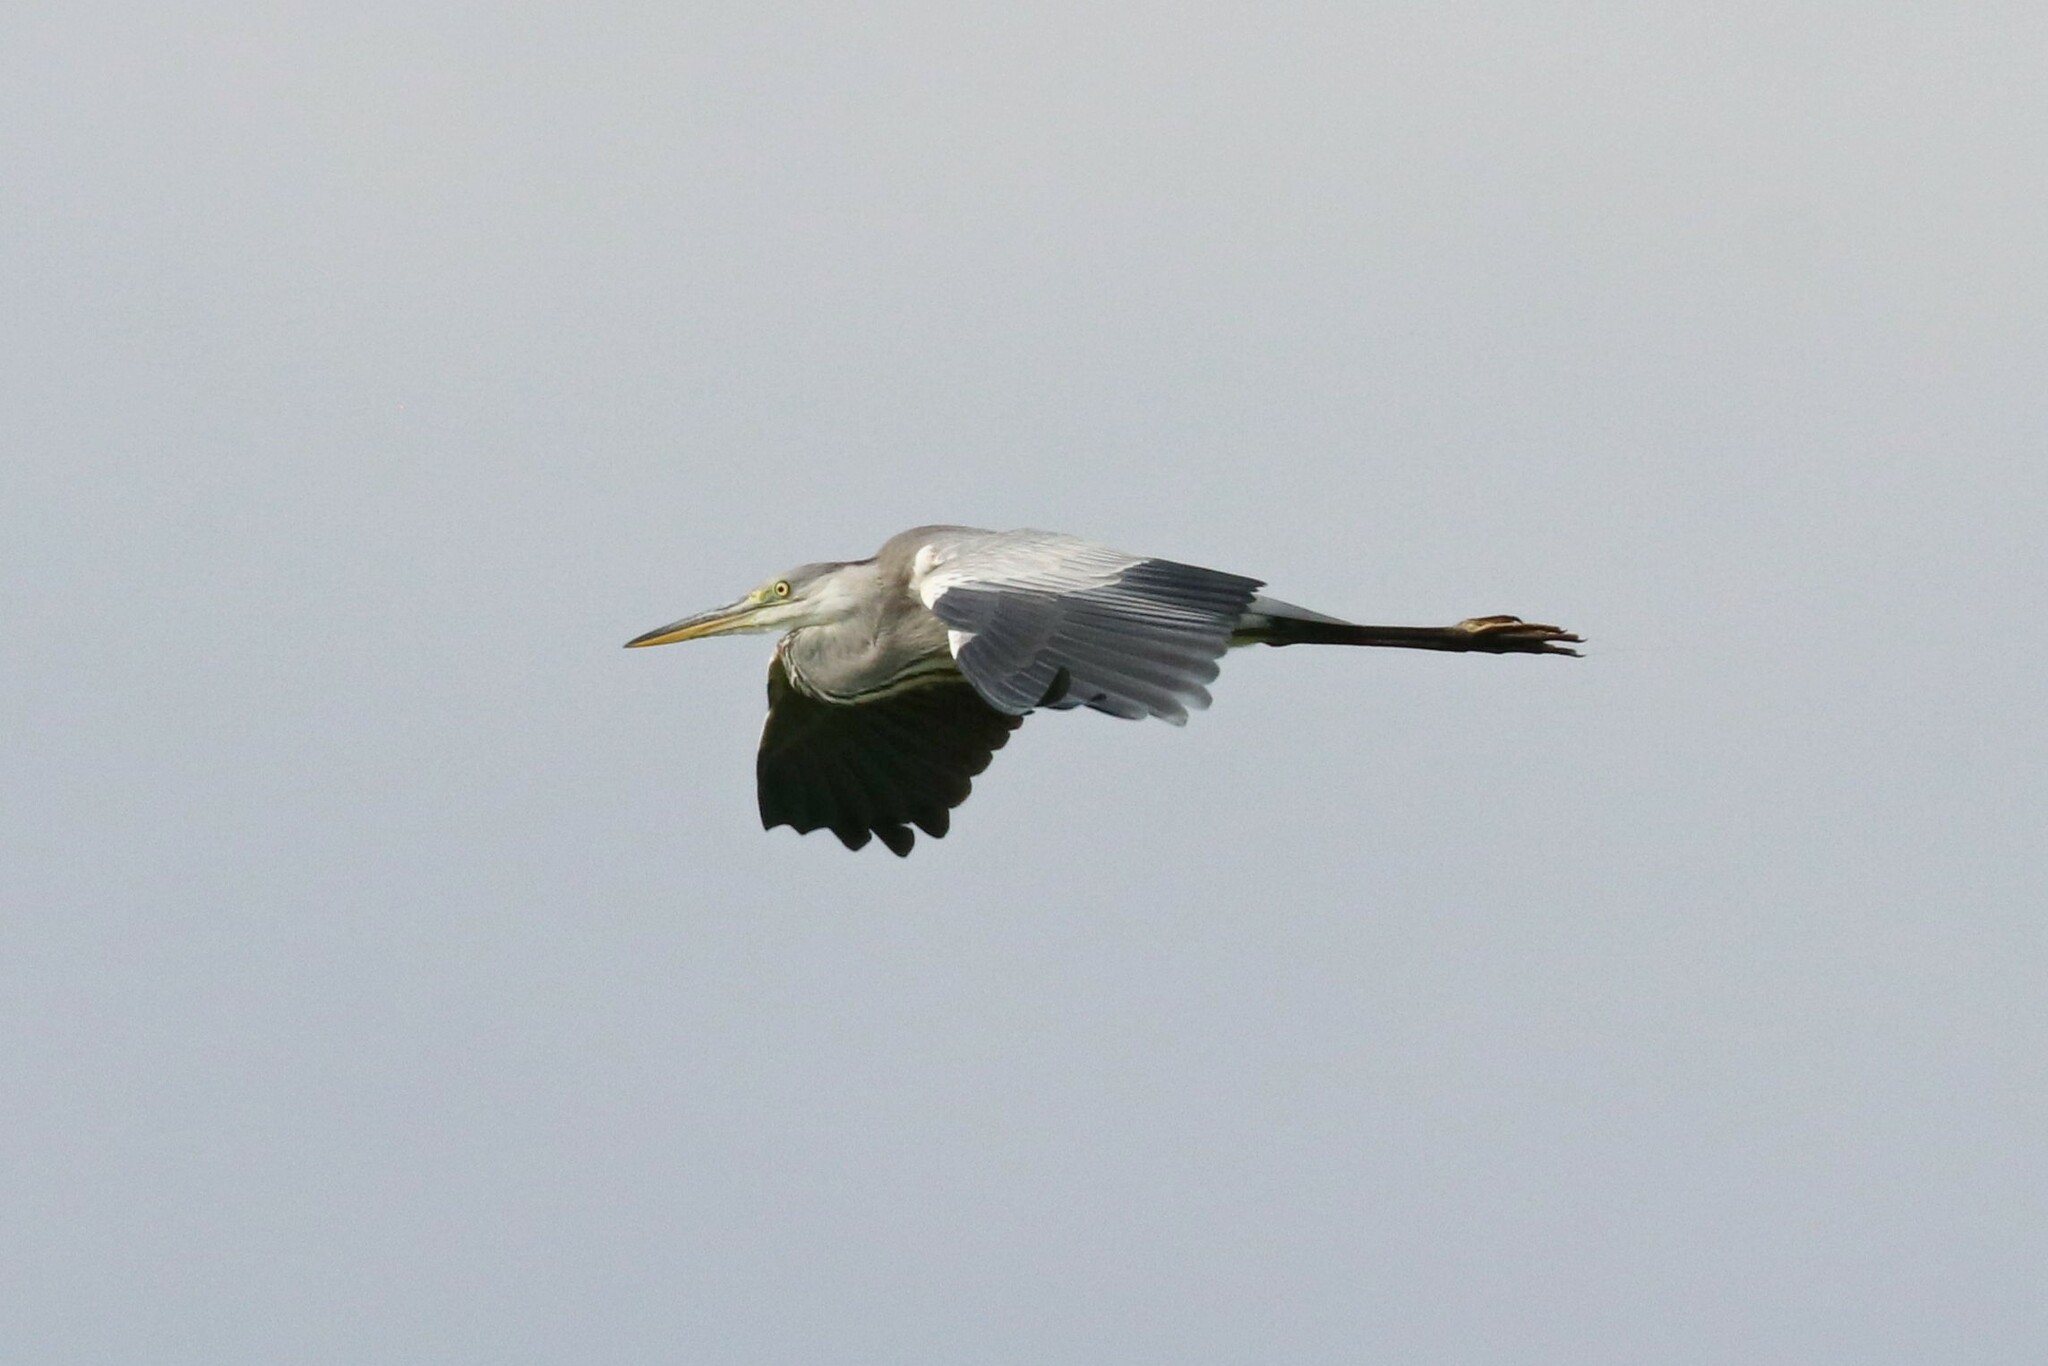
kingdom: Animalia
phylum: Chordata
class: Aves
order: Pelecaniformes
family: Ardeidae
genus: Ardea
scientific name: Ardea cinerea
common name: Grey heron
